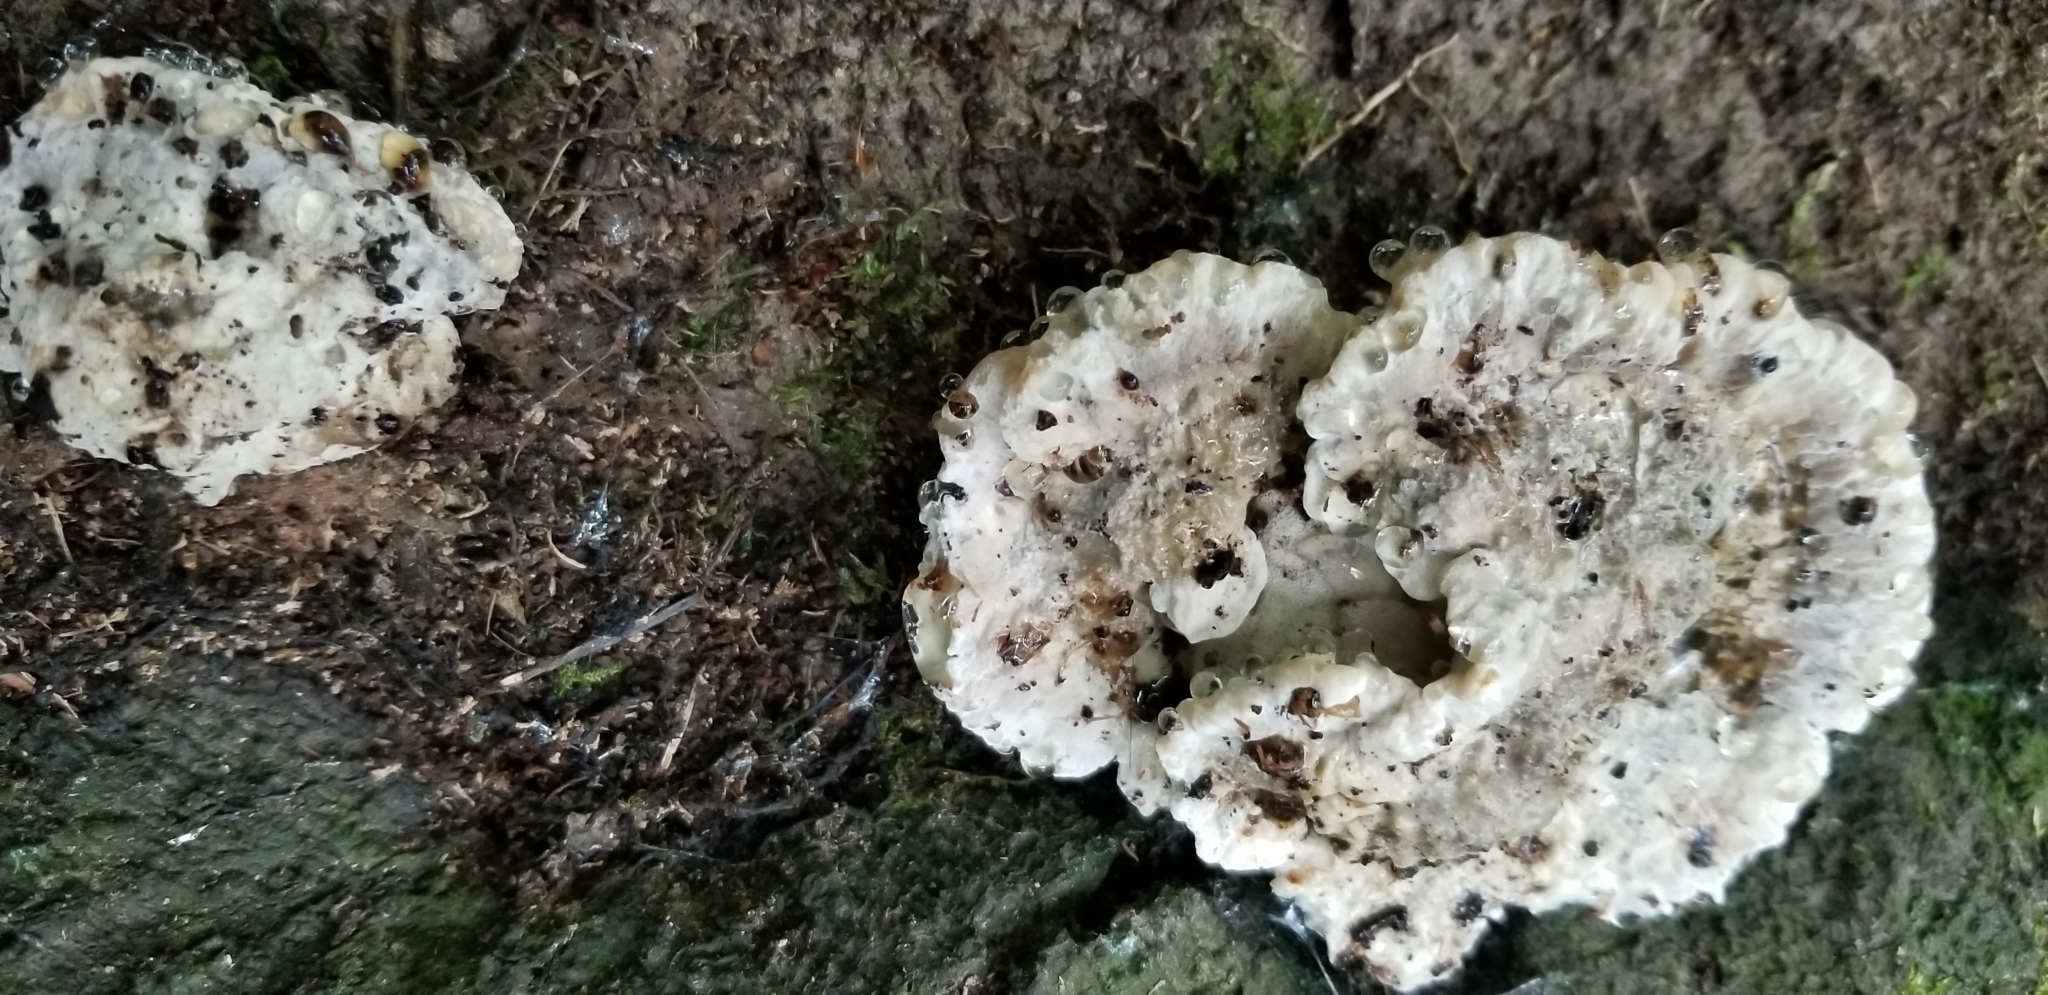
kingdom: Fungi
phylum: Basidiomycota
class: Agaricomycetes
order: Polyporales
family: Fomitopsidaceae
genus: Niveoporofomes
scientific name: Niveoporofomes spraguei
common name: Green cheese polypore
